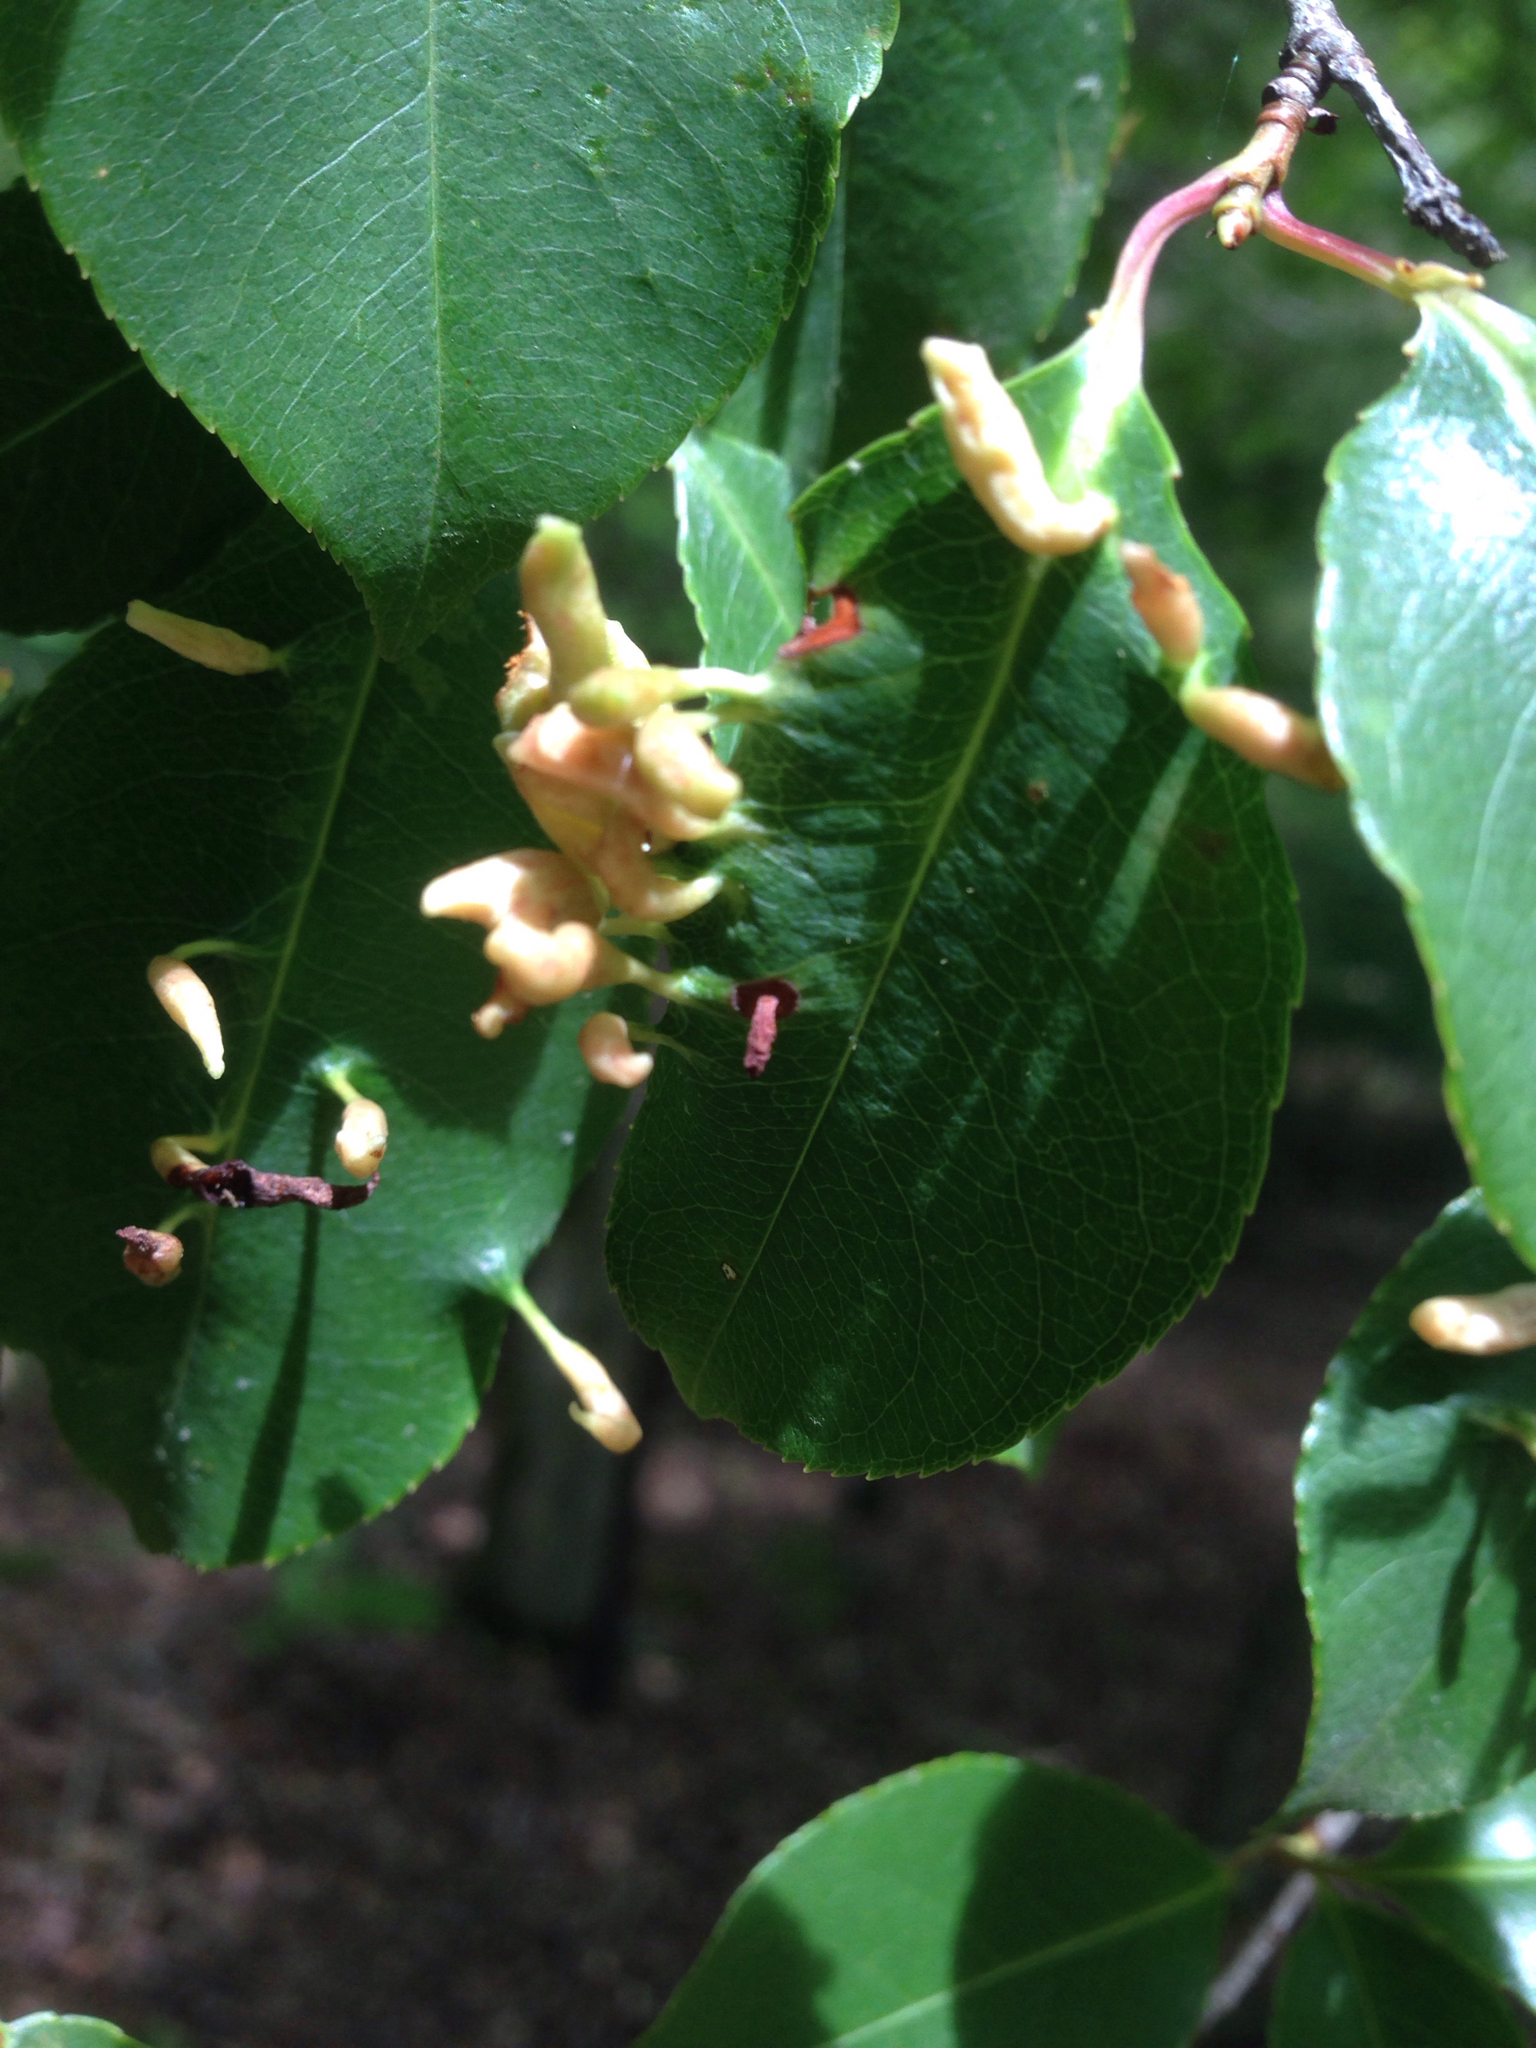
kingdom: Animalia
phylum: Arthropoda
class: Arachnida
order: Trombidiformes
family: Eriophyidae
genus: Eriophyes
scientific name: Eriophyes
